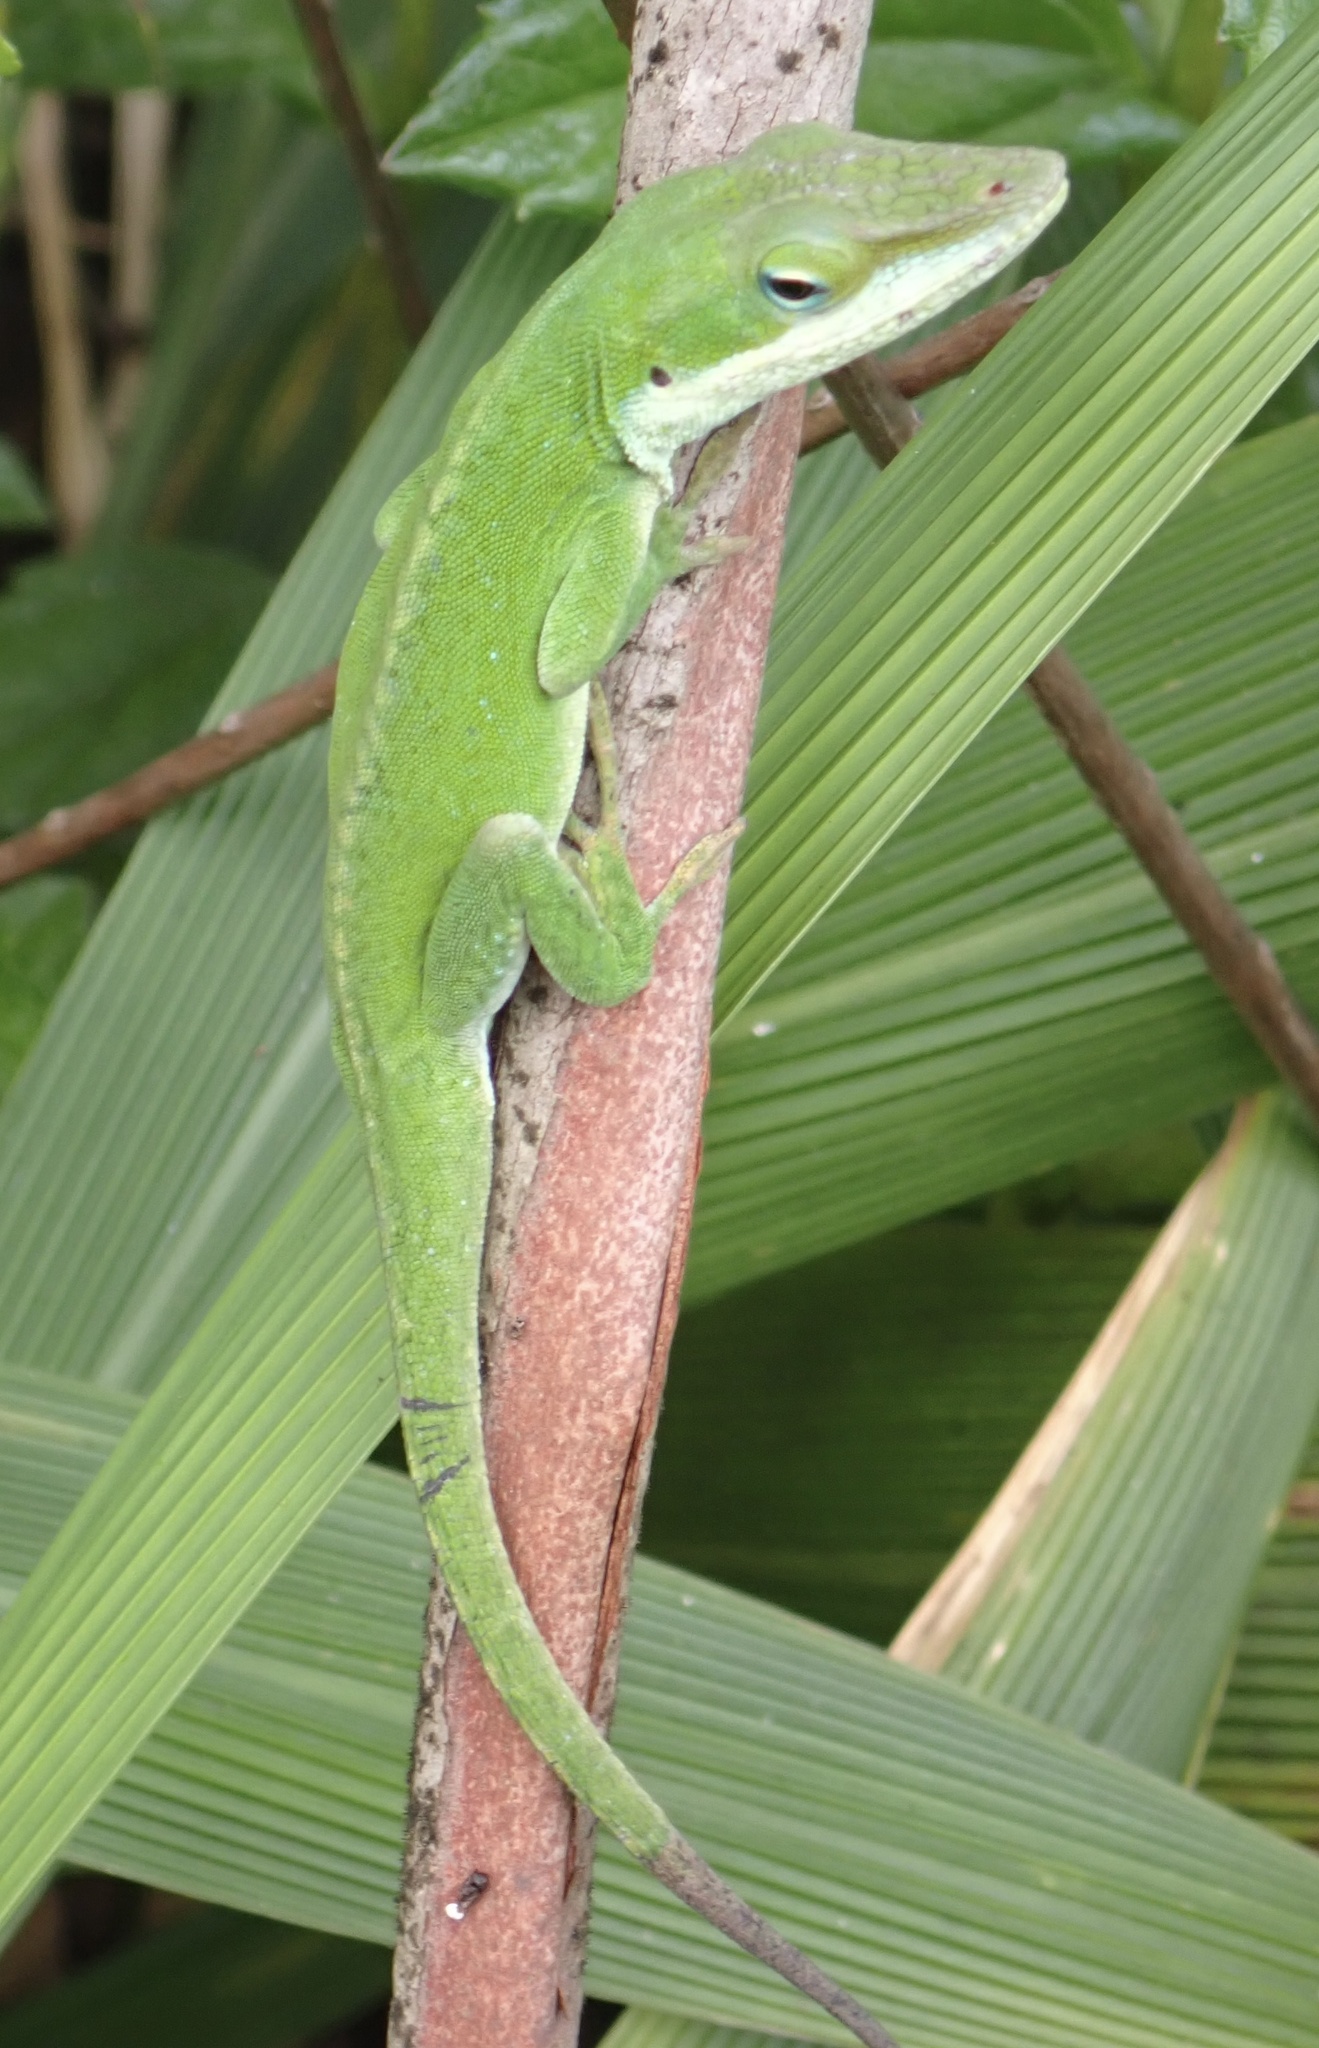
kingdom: Animalia
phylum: Chordata
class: Squamata
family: Dactyloidae
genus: Anolis
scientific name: Anolis carolinensis
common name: Green anole
